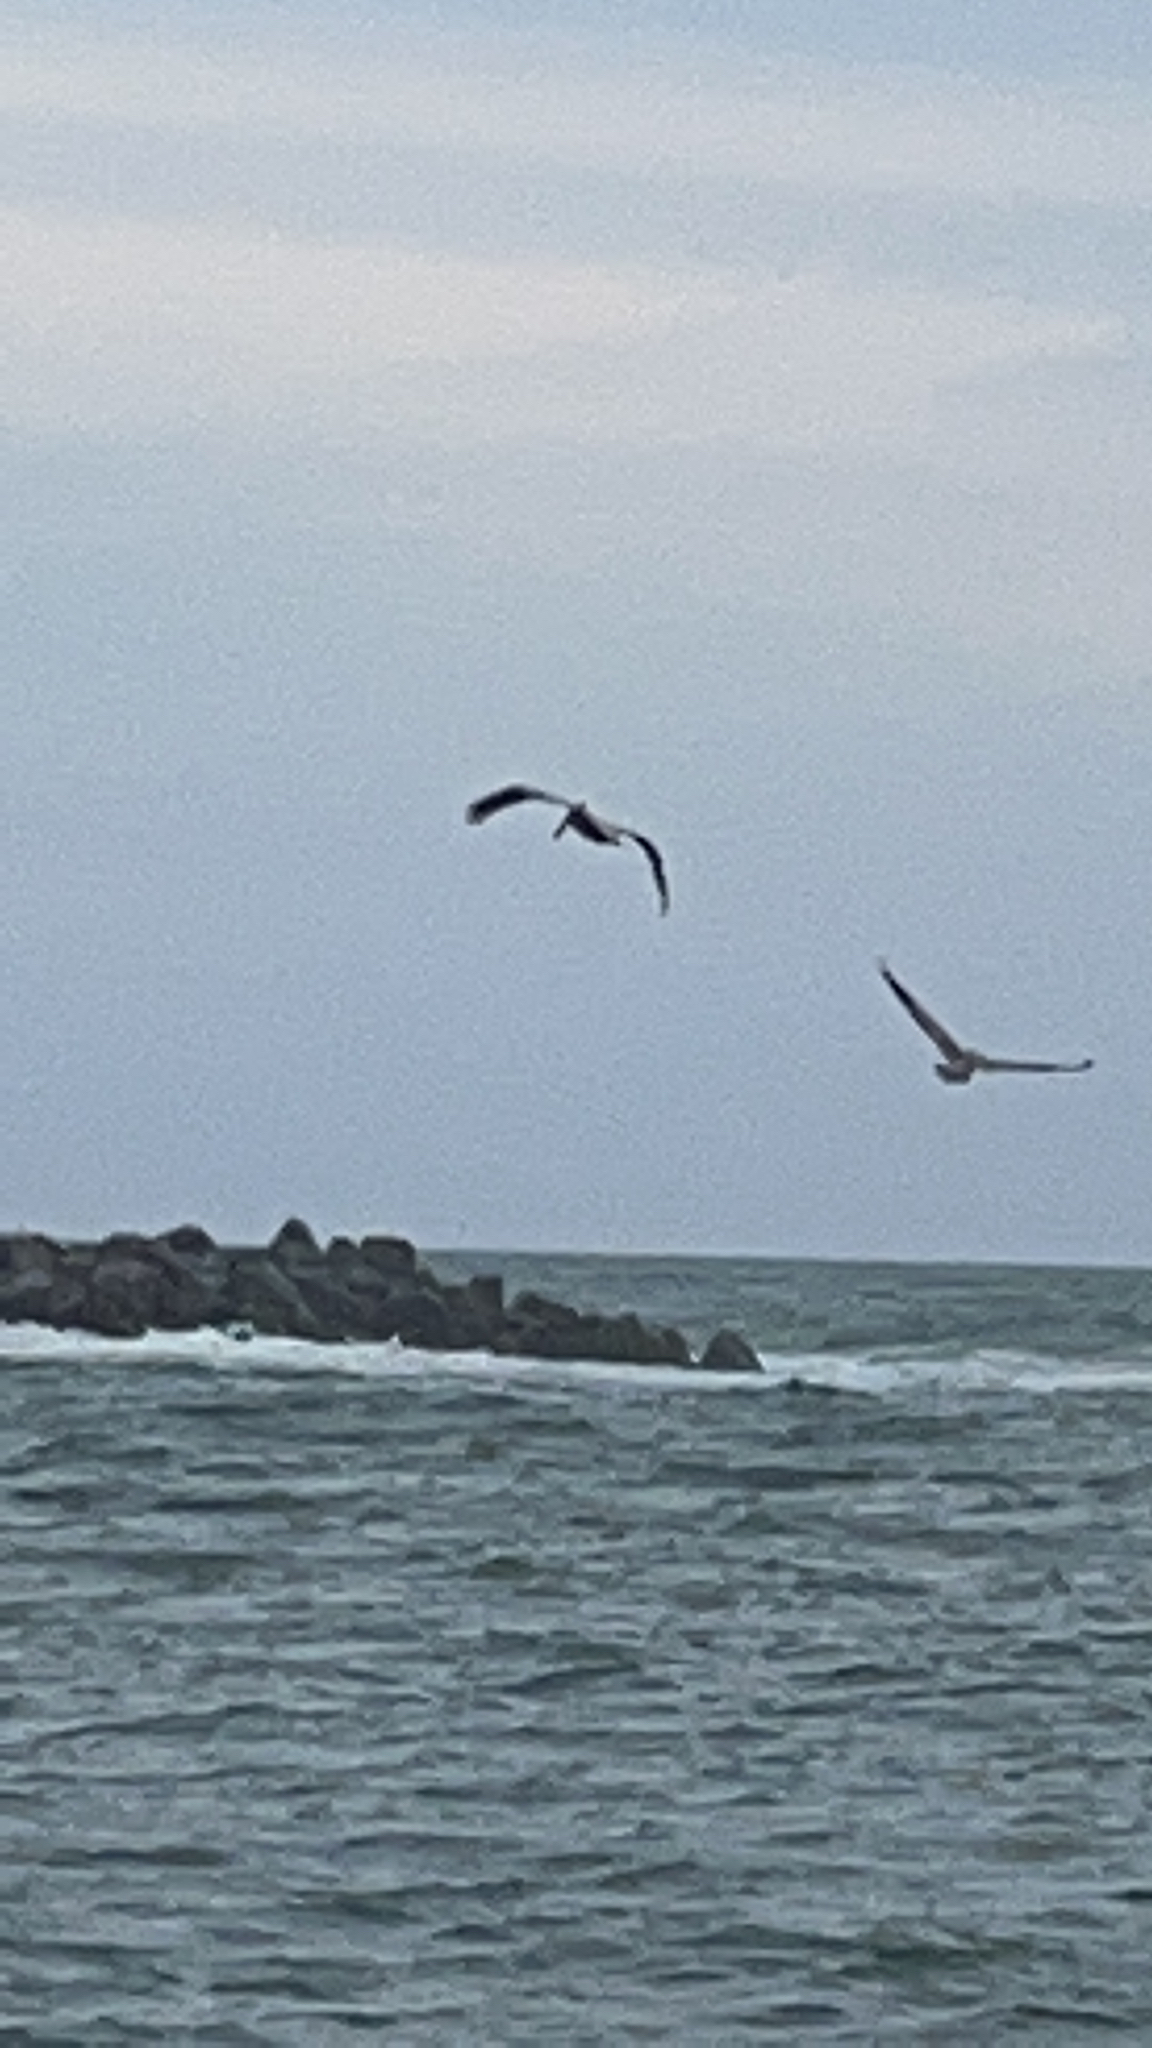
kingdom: Animalia
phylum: Chordata
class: Aves
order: Pelecaniformes
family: Pelecanidae
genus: Pelecanus
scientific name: Pelecanus occidentalis
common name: Brown pelican
